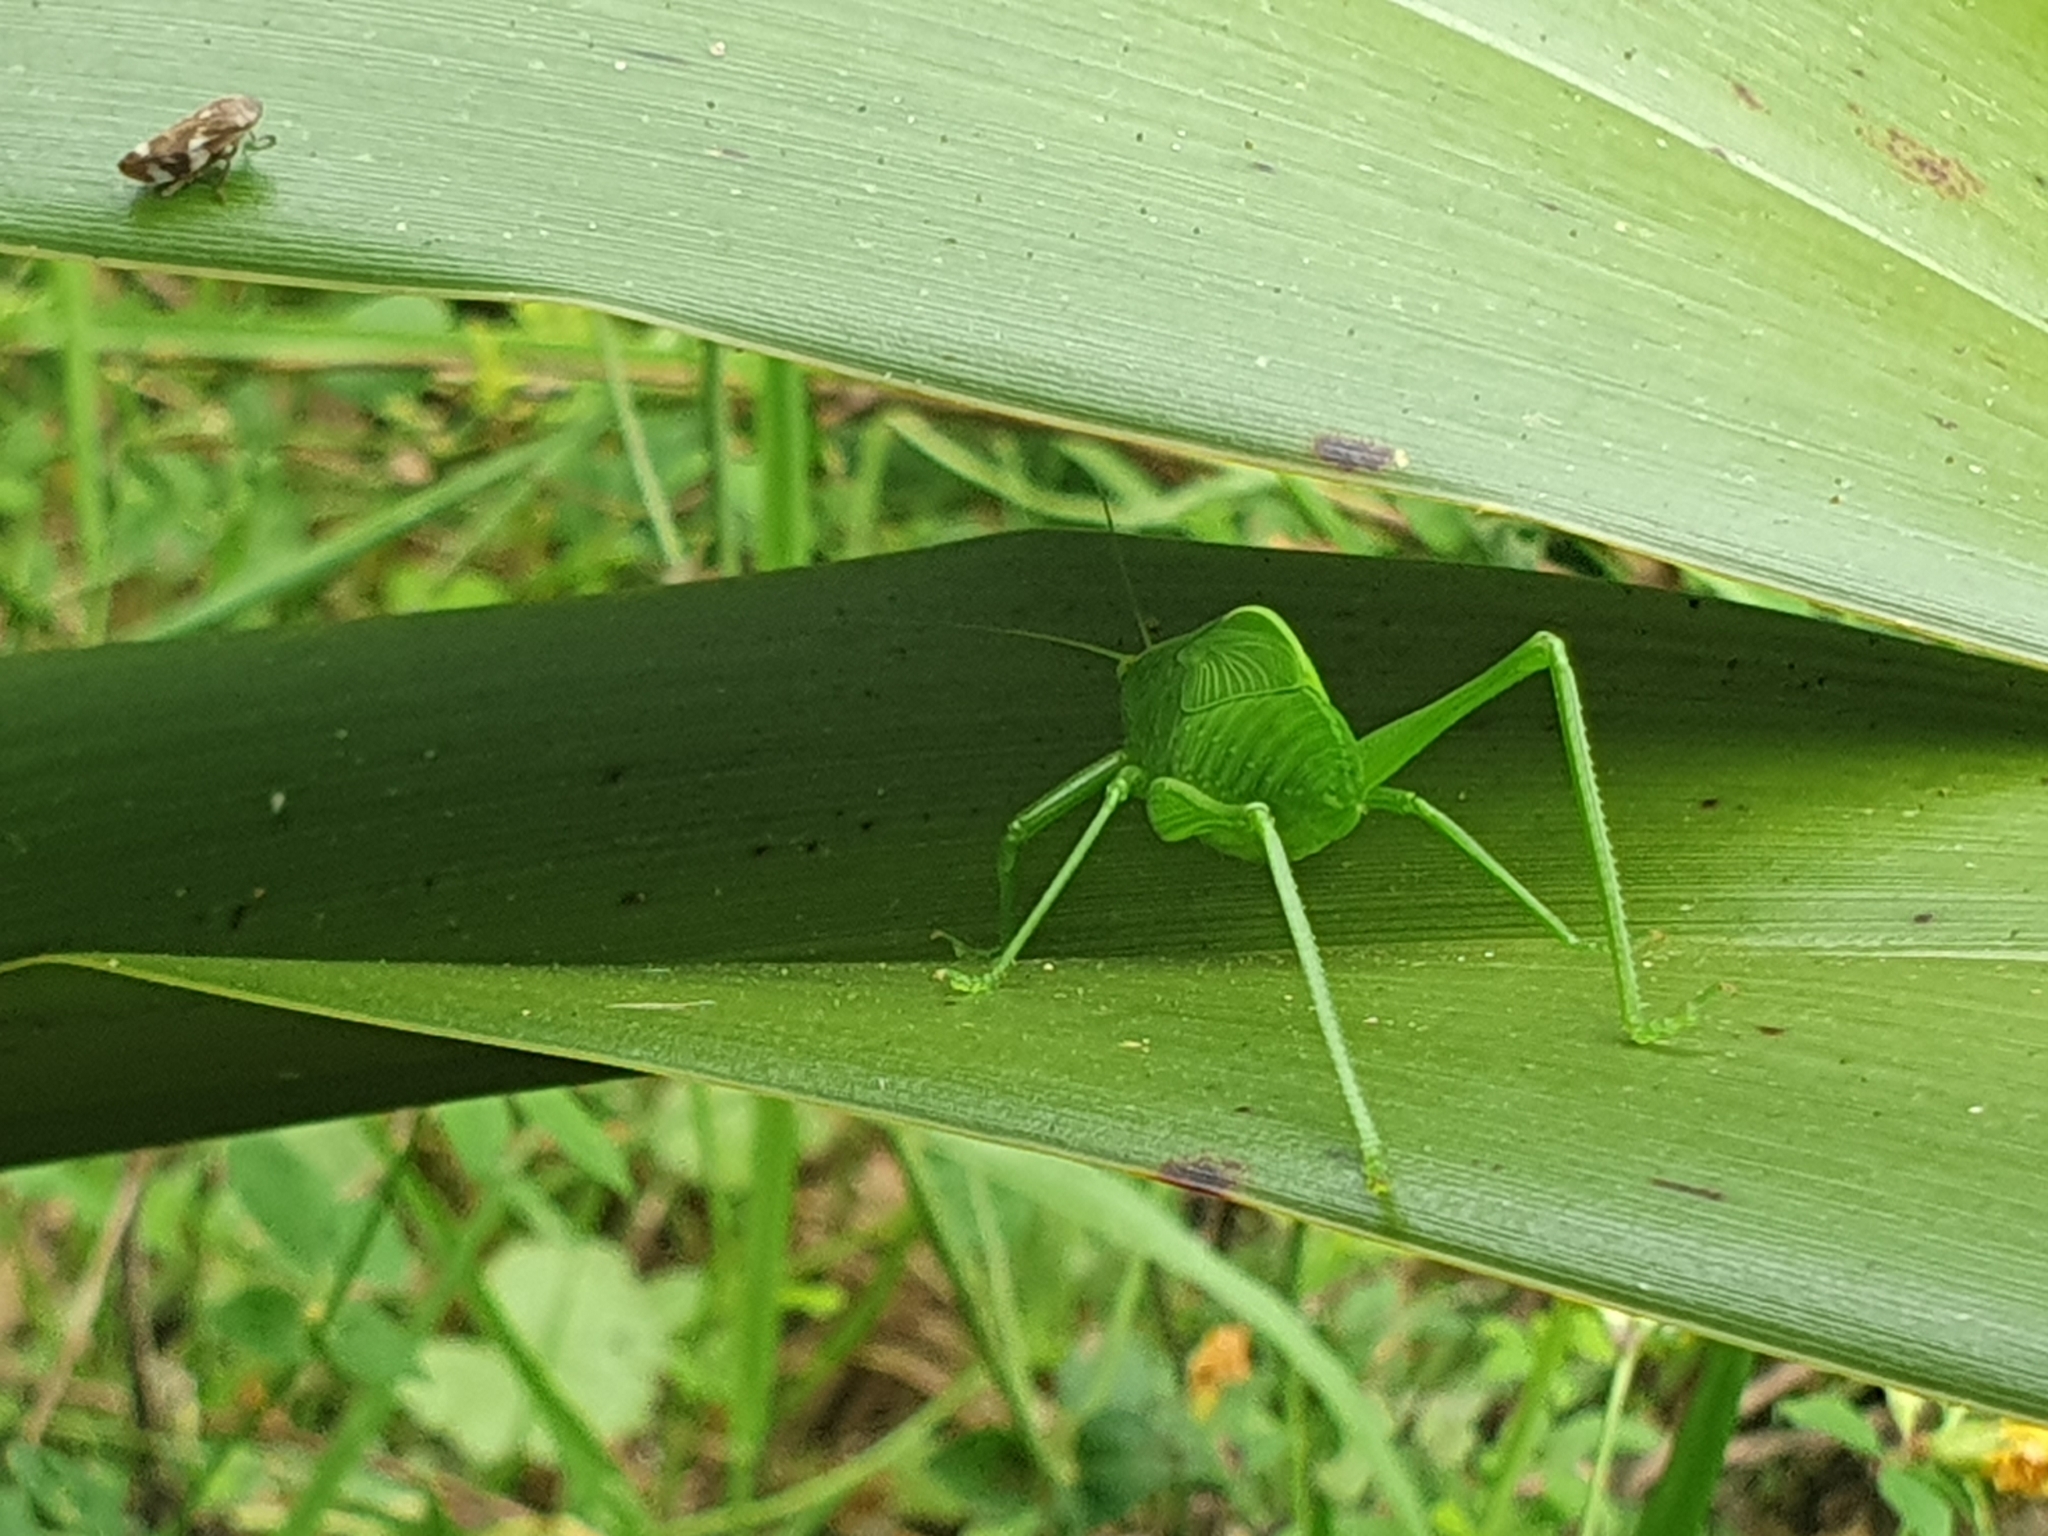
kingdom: Animalia
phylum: Arthropoda
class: Insecta
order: Orthoptera
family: Tettigoniidae
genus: Caedicia
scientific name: Caedicia simplex
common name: Common garden katydid
